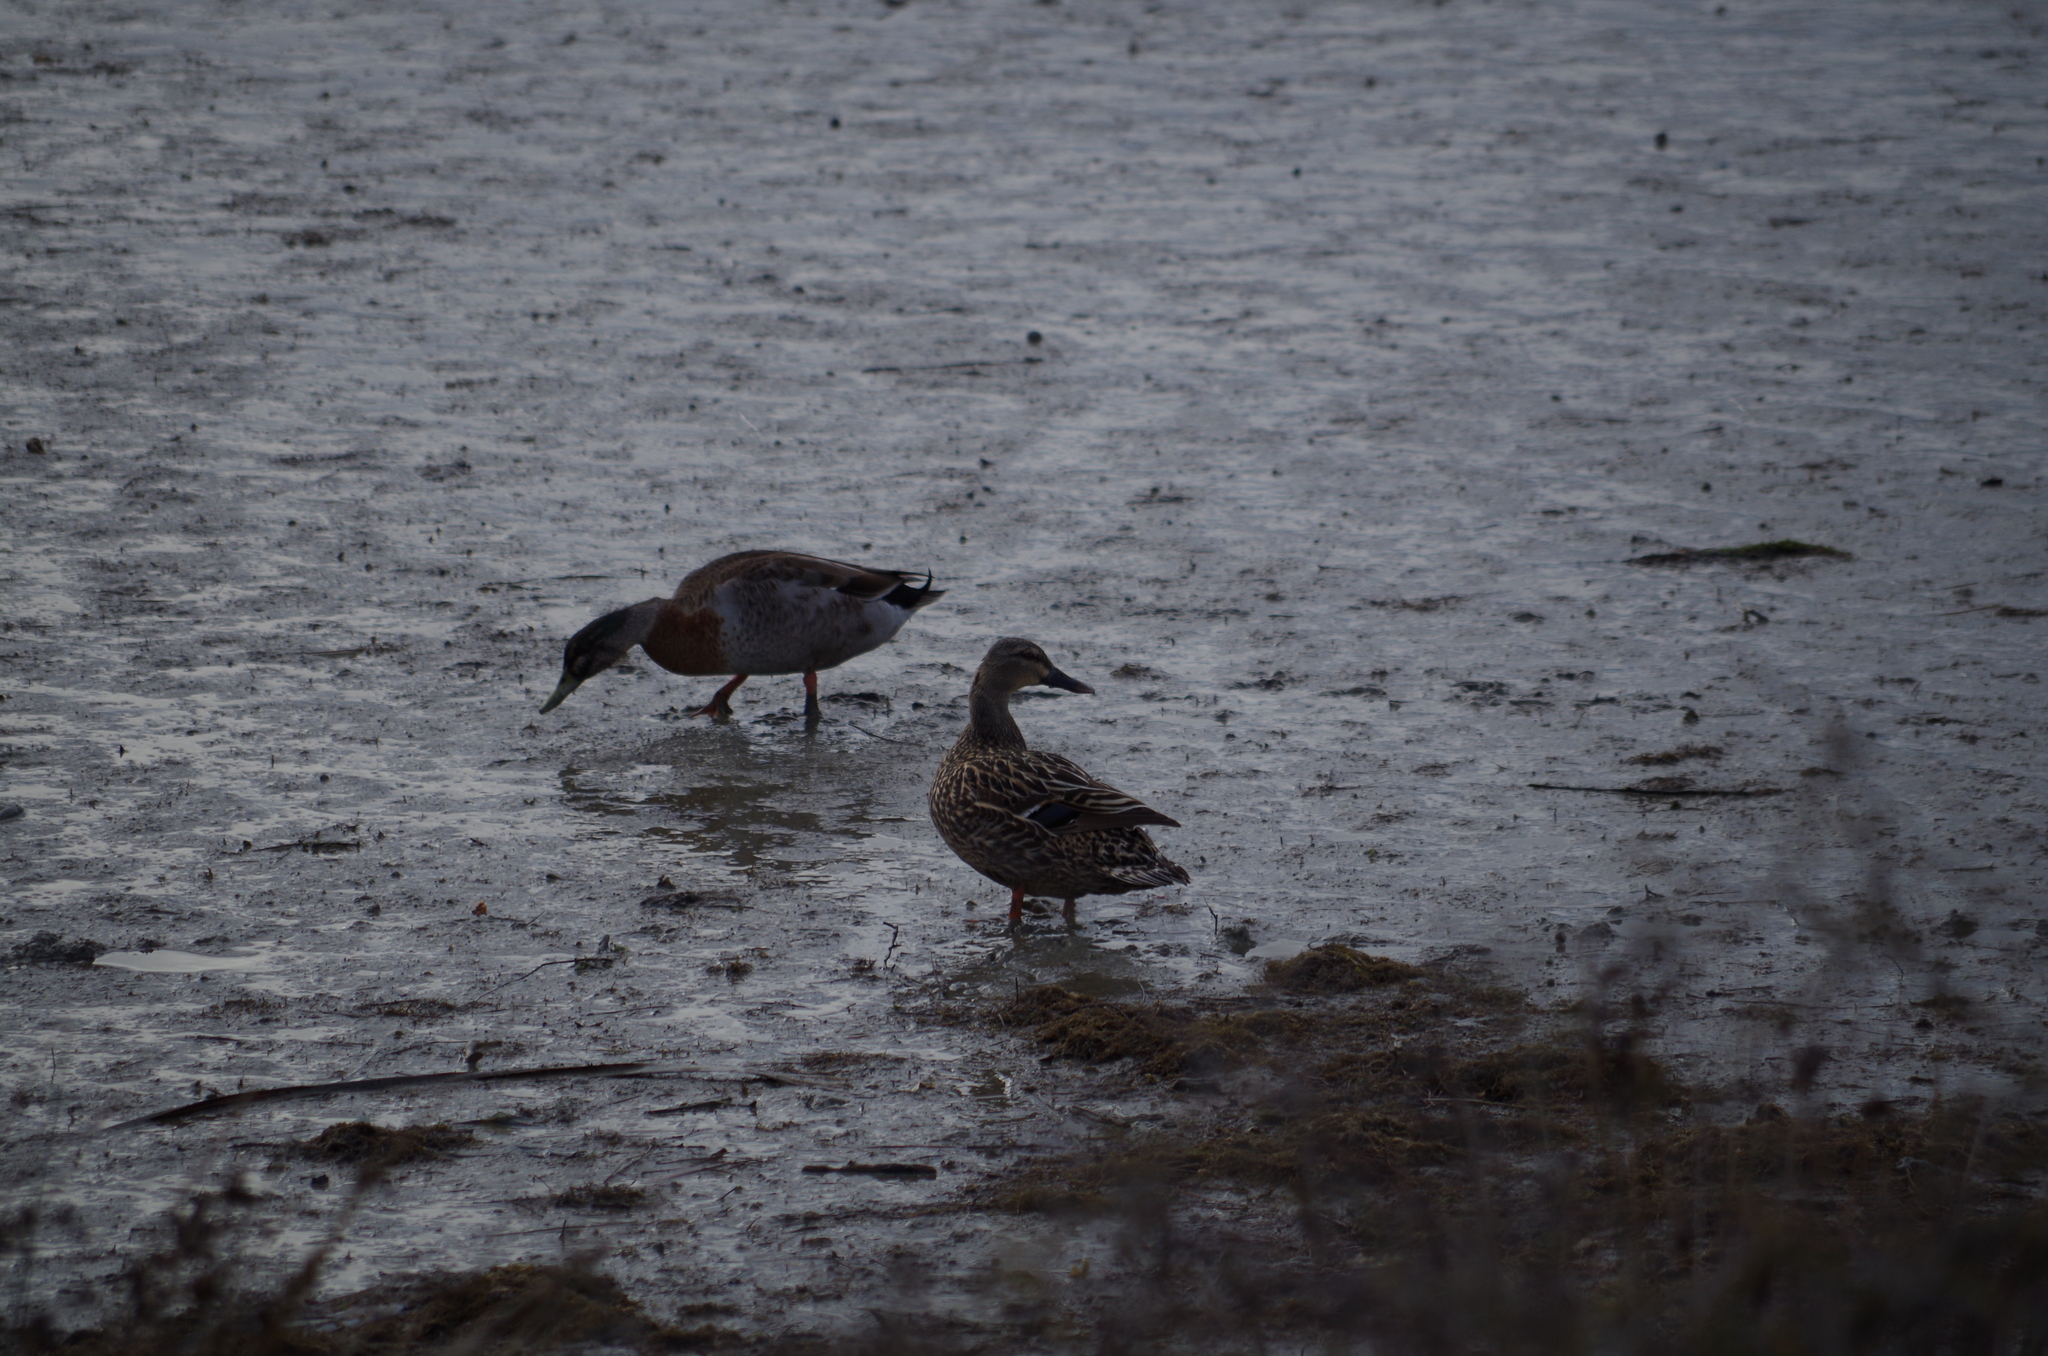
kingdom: Animalia
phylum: Chordata
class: Aves
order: Anseriformes
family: Anatidae
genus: Anas
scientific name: Anas
